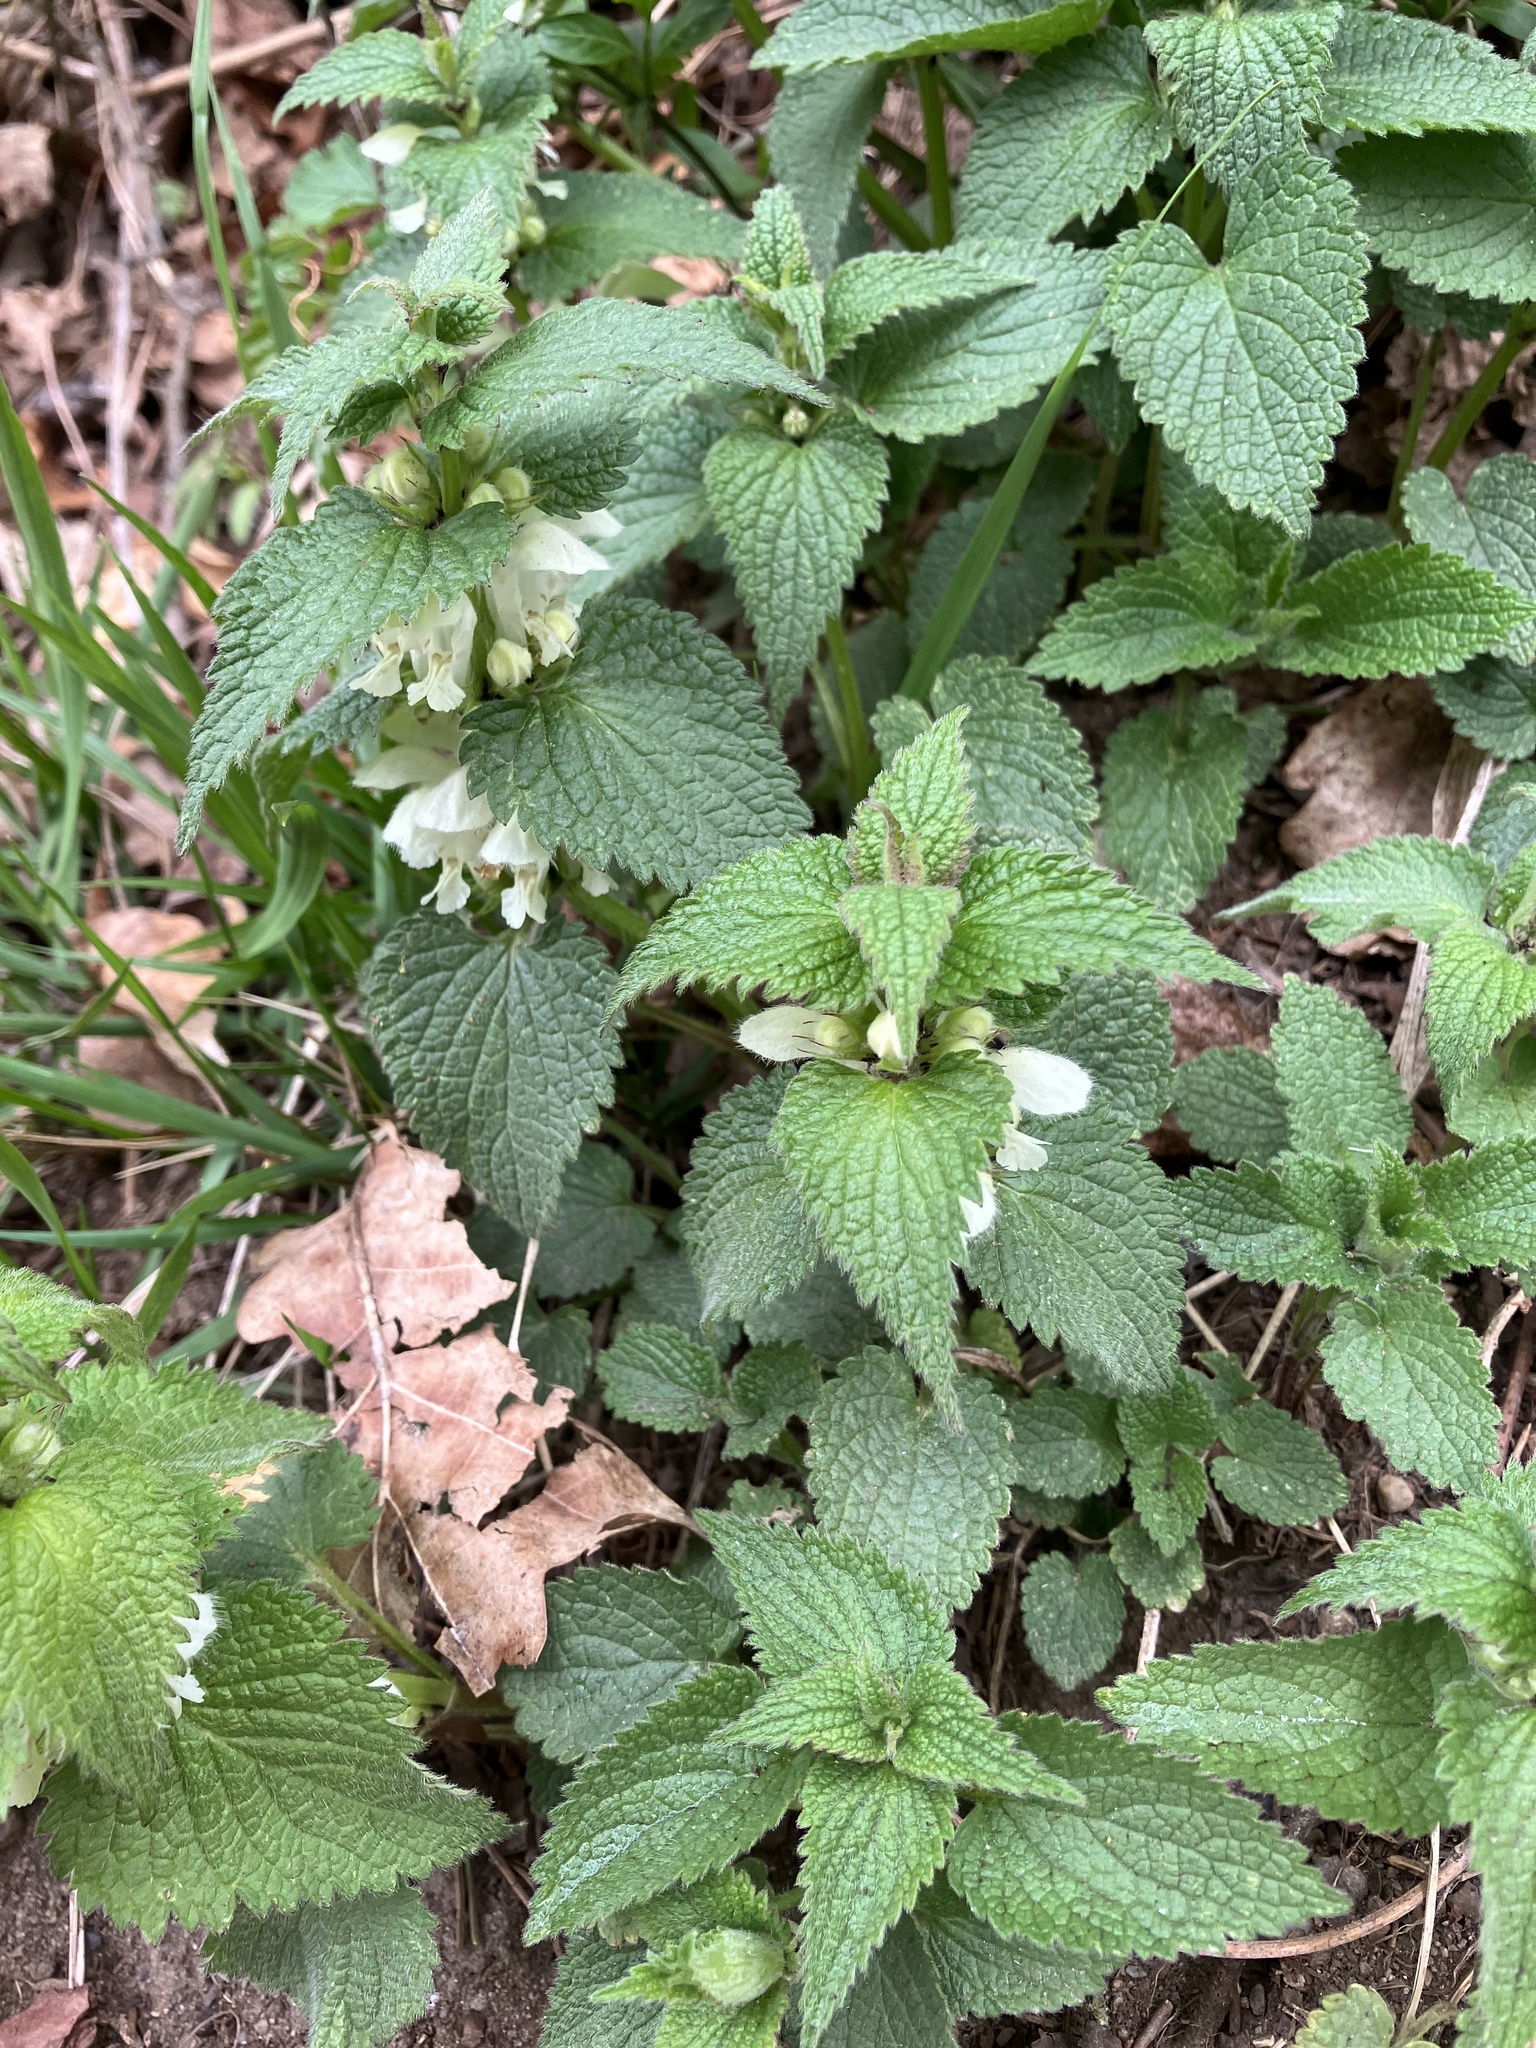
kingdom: Plantae
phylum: Tracheophyta
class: Magnoliopsida
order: Lamiales
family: Lamiaceae
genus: Lamium
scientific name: Lamium album
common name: White dead-nettle
